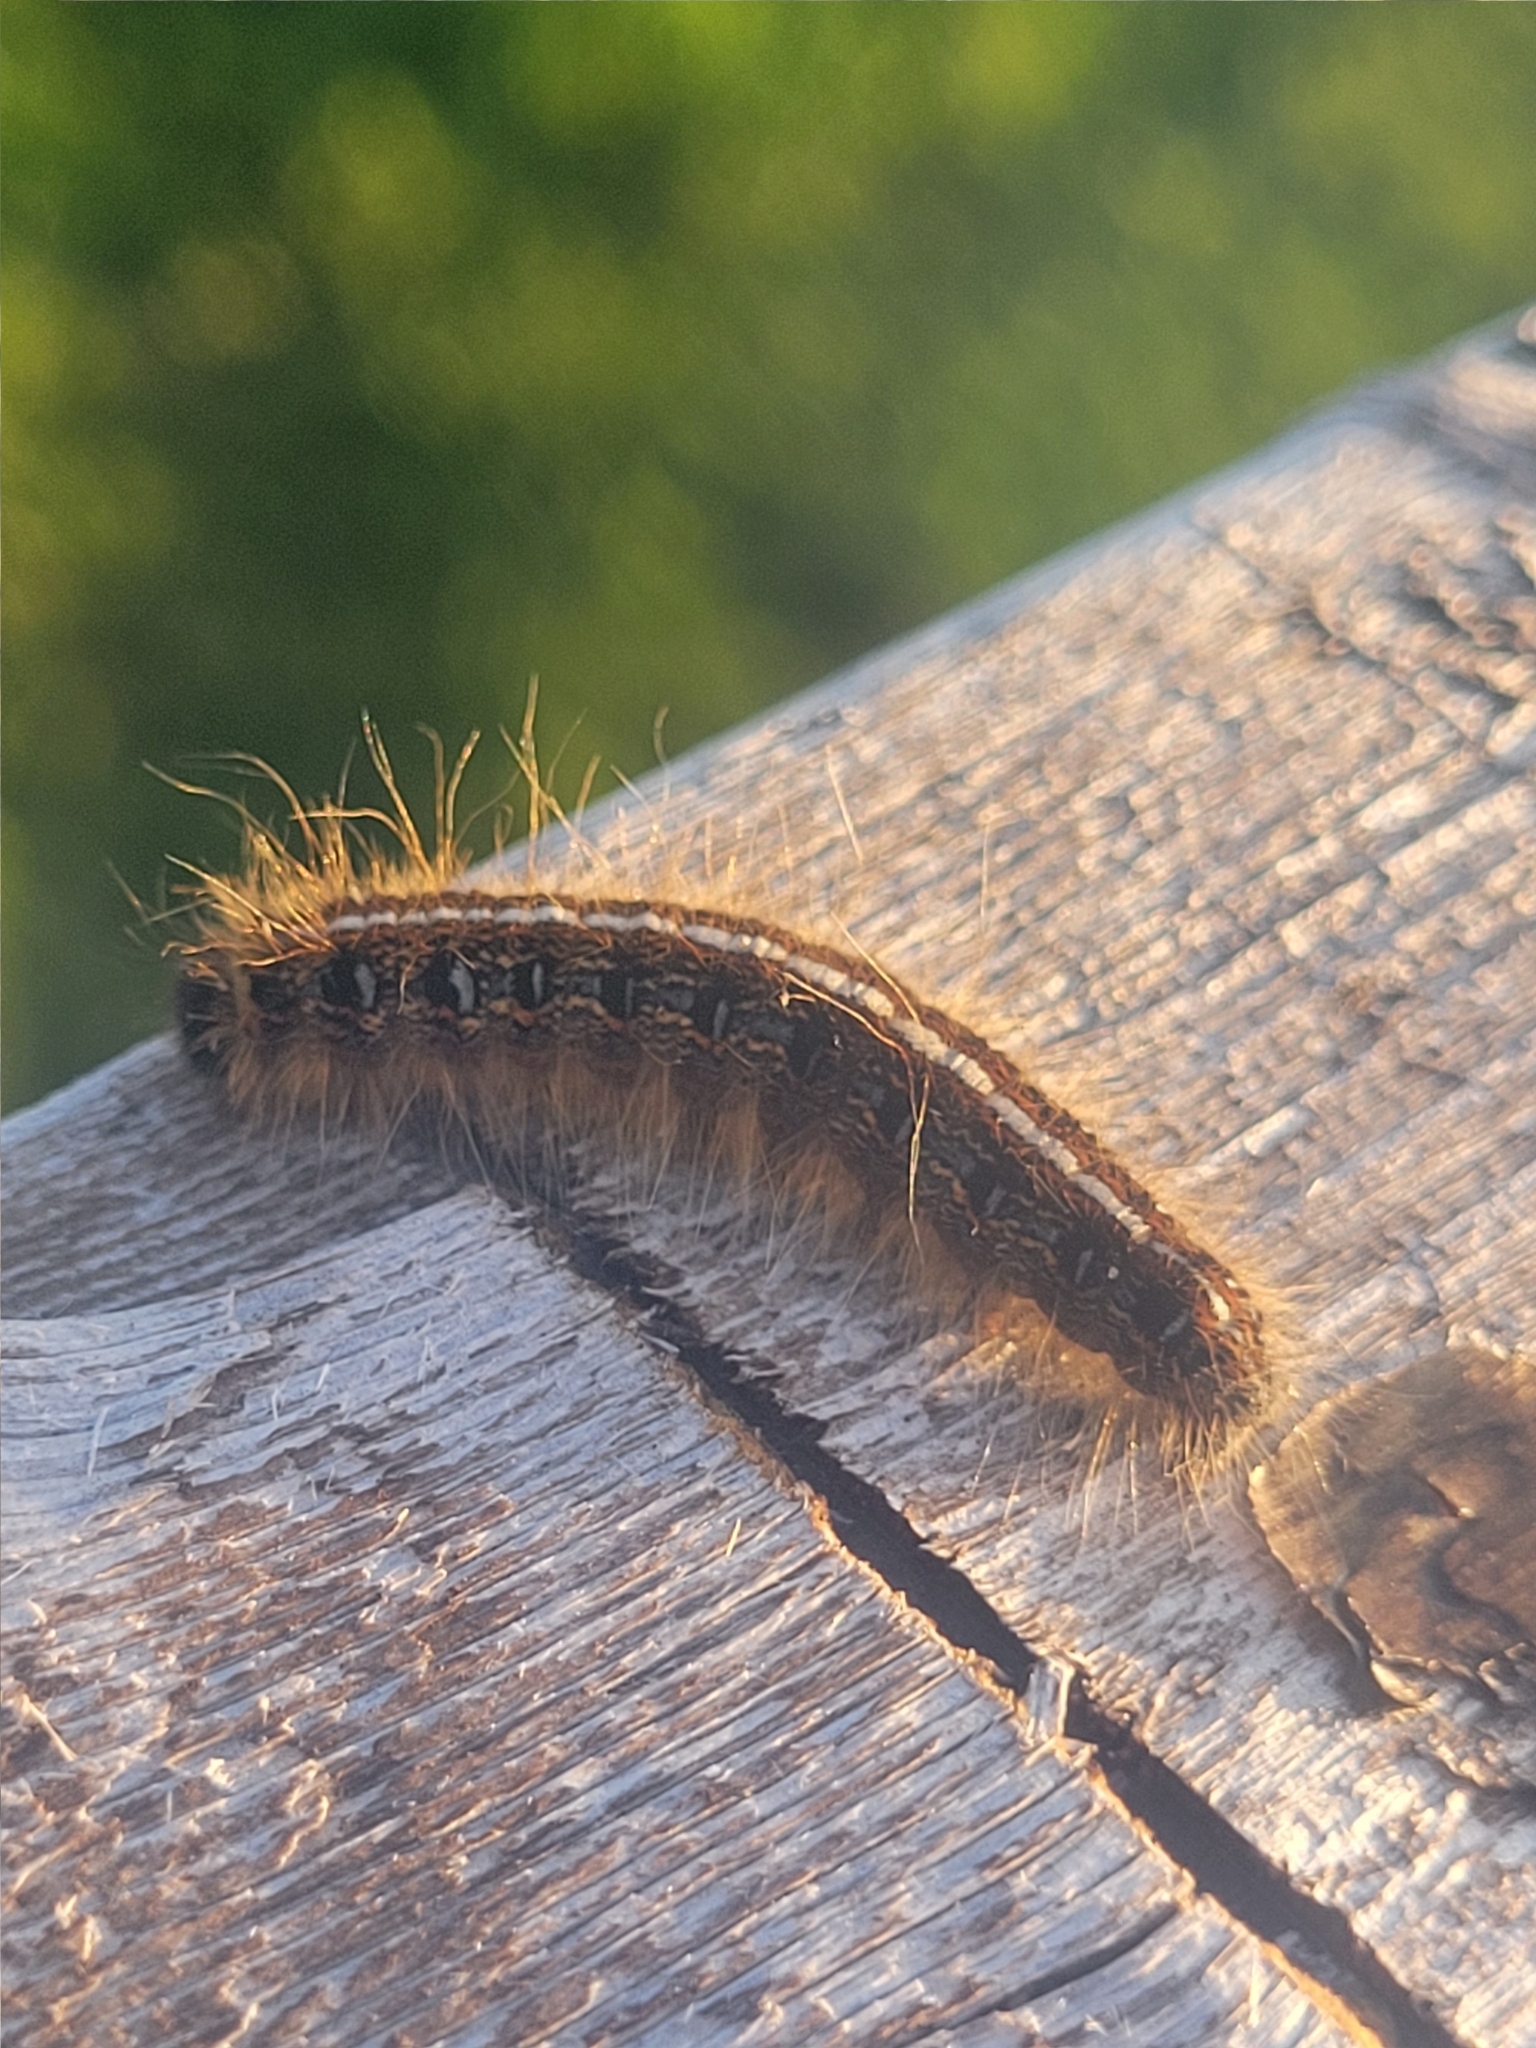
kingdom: Animalia
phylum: Arthropoda
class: Insecta
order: Lepidoptera
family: Lasiocampidae
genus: Malacosoma
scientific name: Malacosoma americana
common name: Eastern tent caterpillar moth
